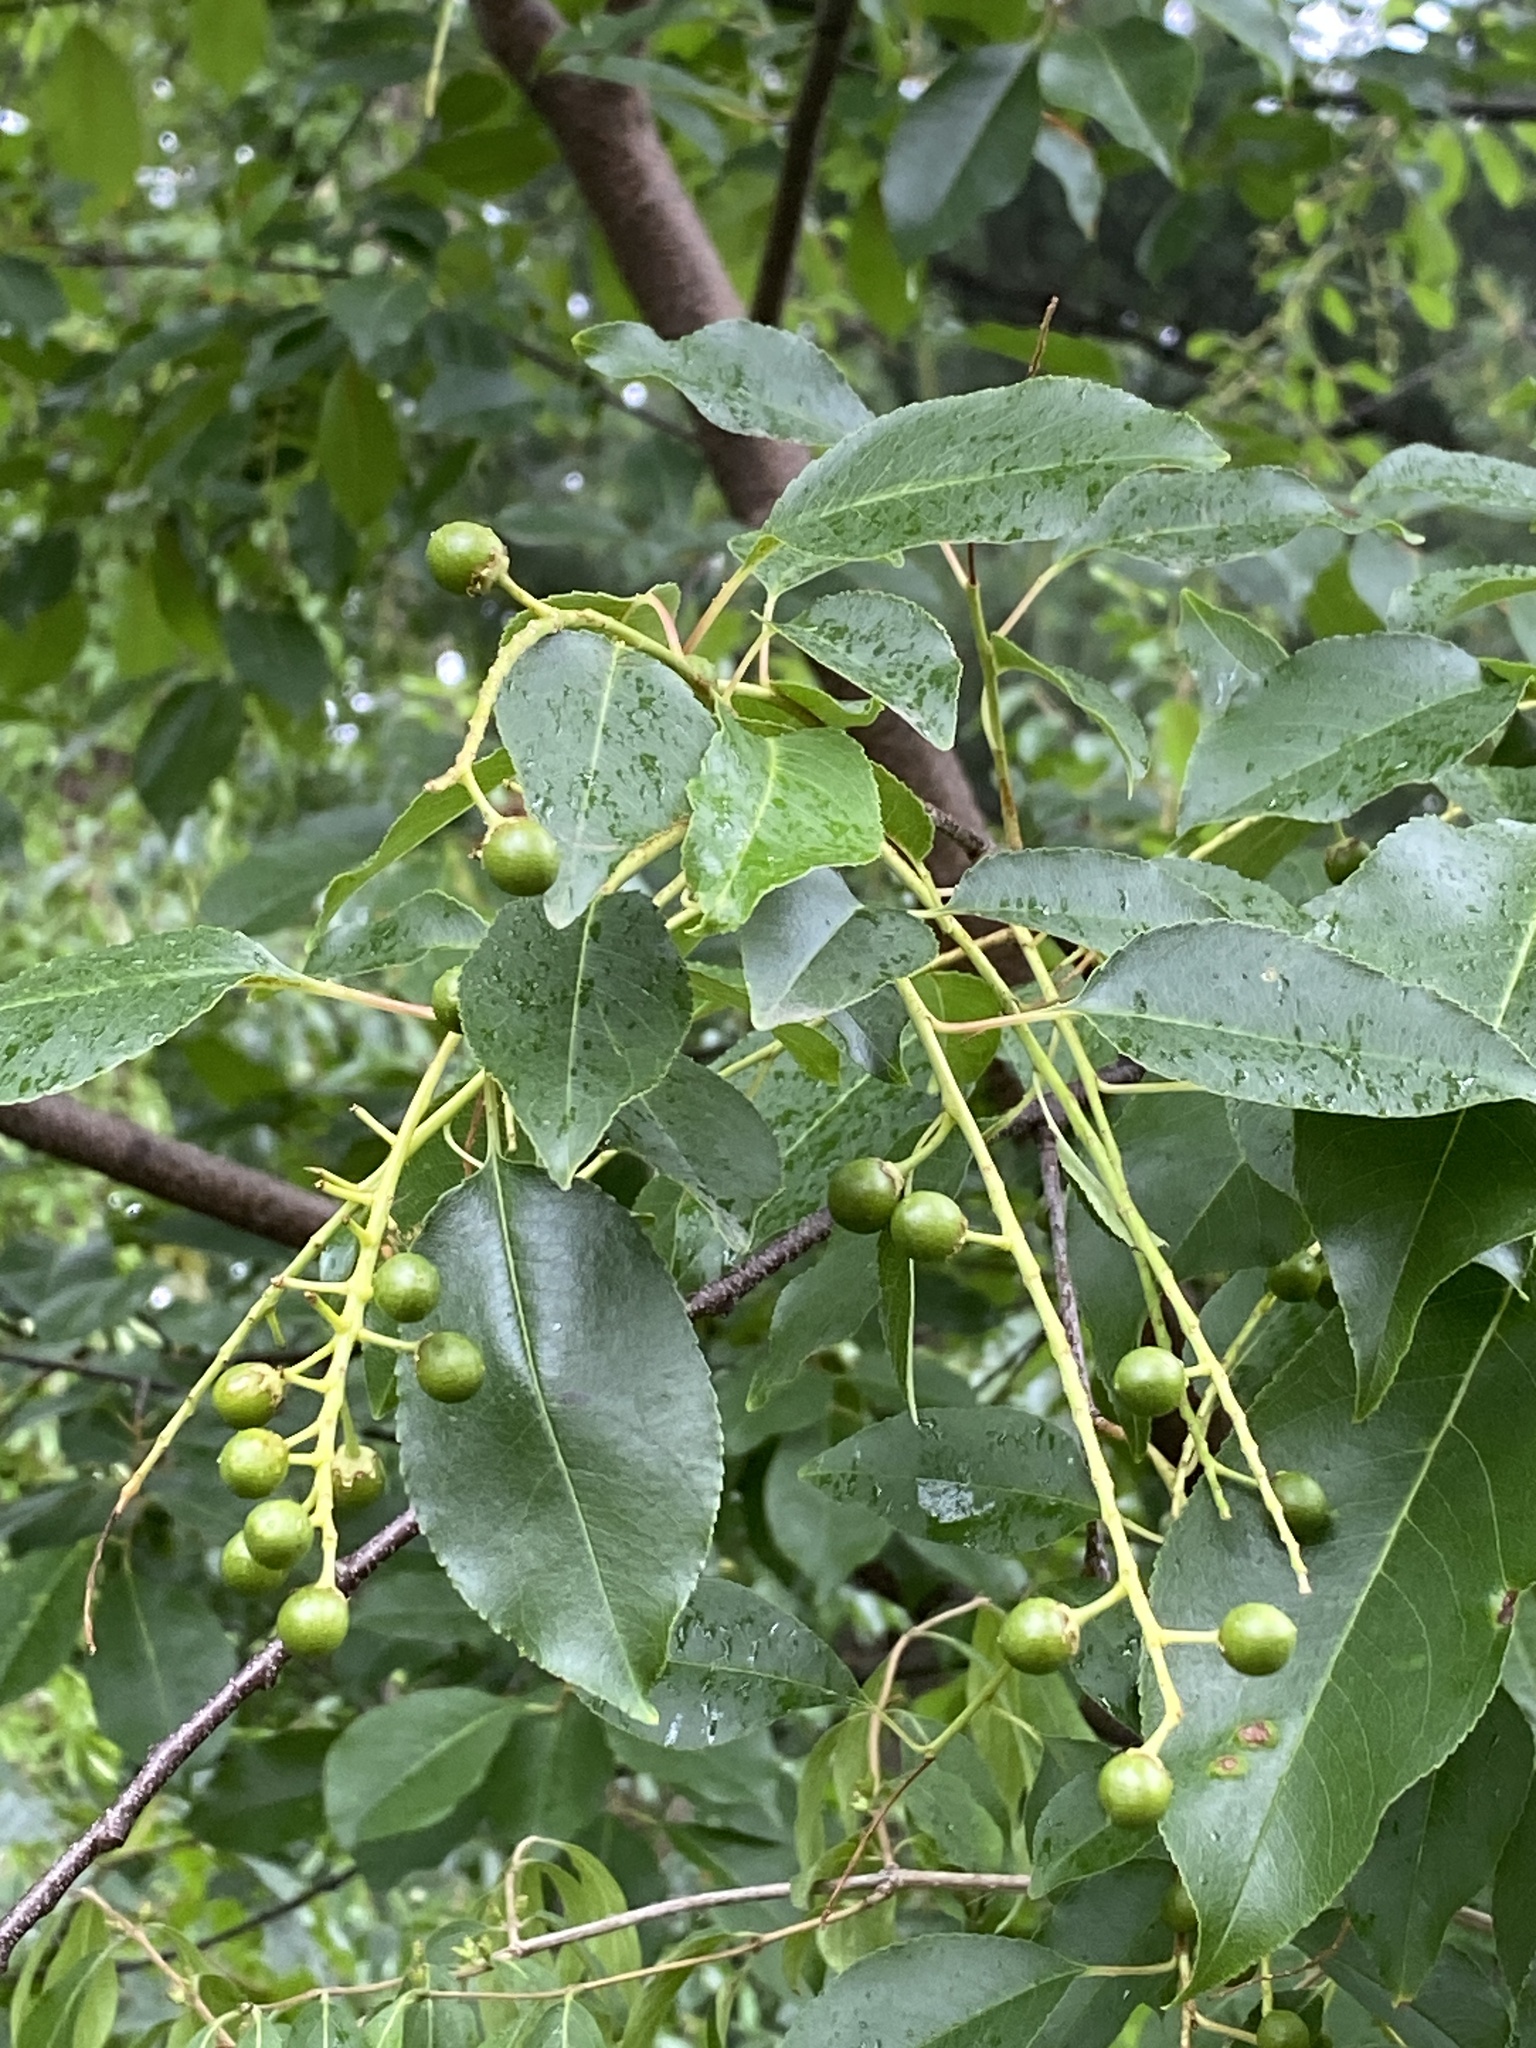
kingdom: Plantae
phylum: Tracheophyta
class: Magnoliopsida
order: Rosales
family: Rosaceae
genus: Prunus
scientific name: Prunus serotina
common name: Black cherry
